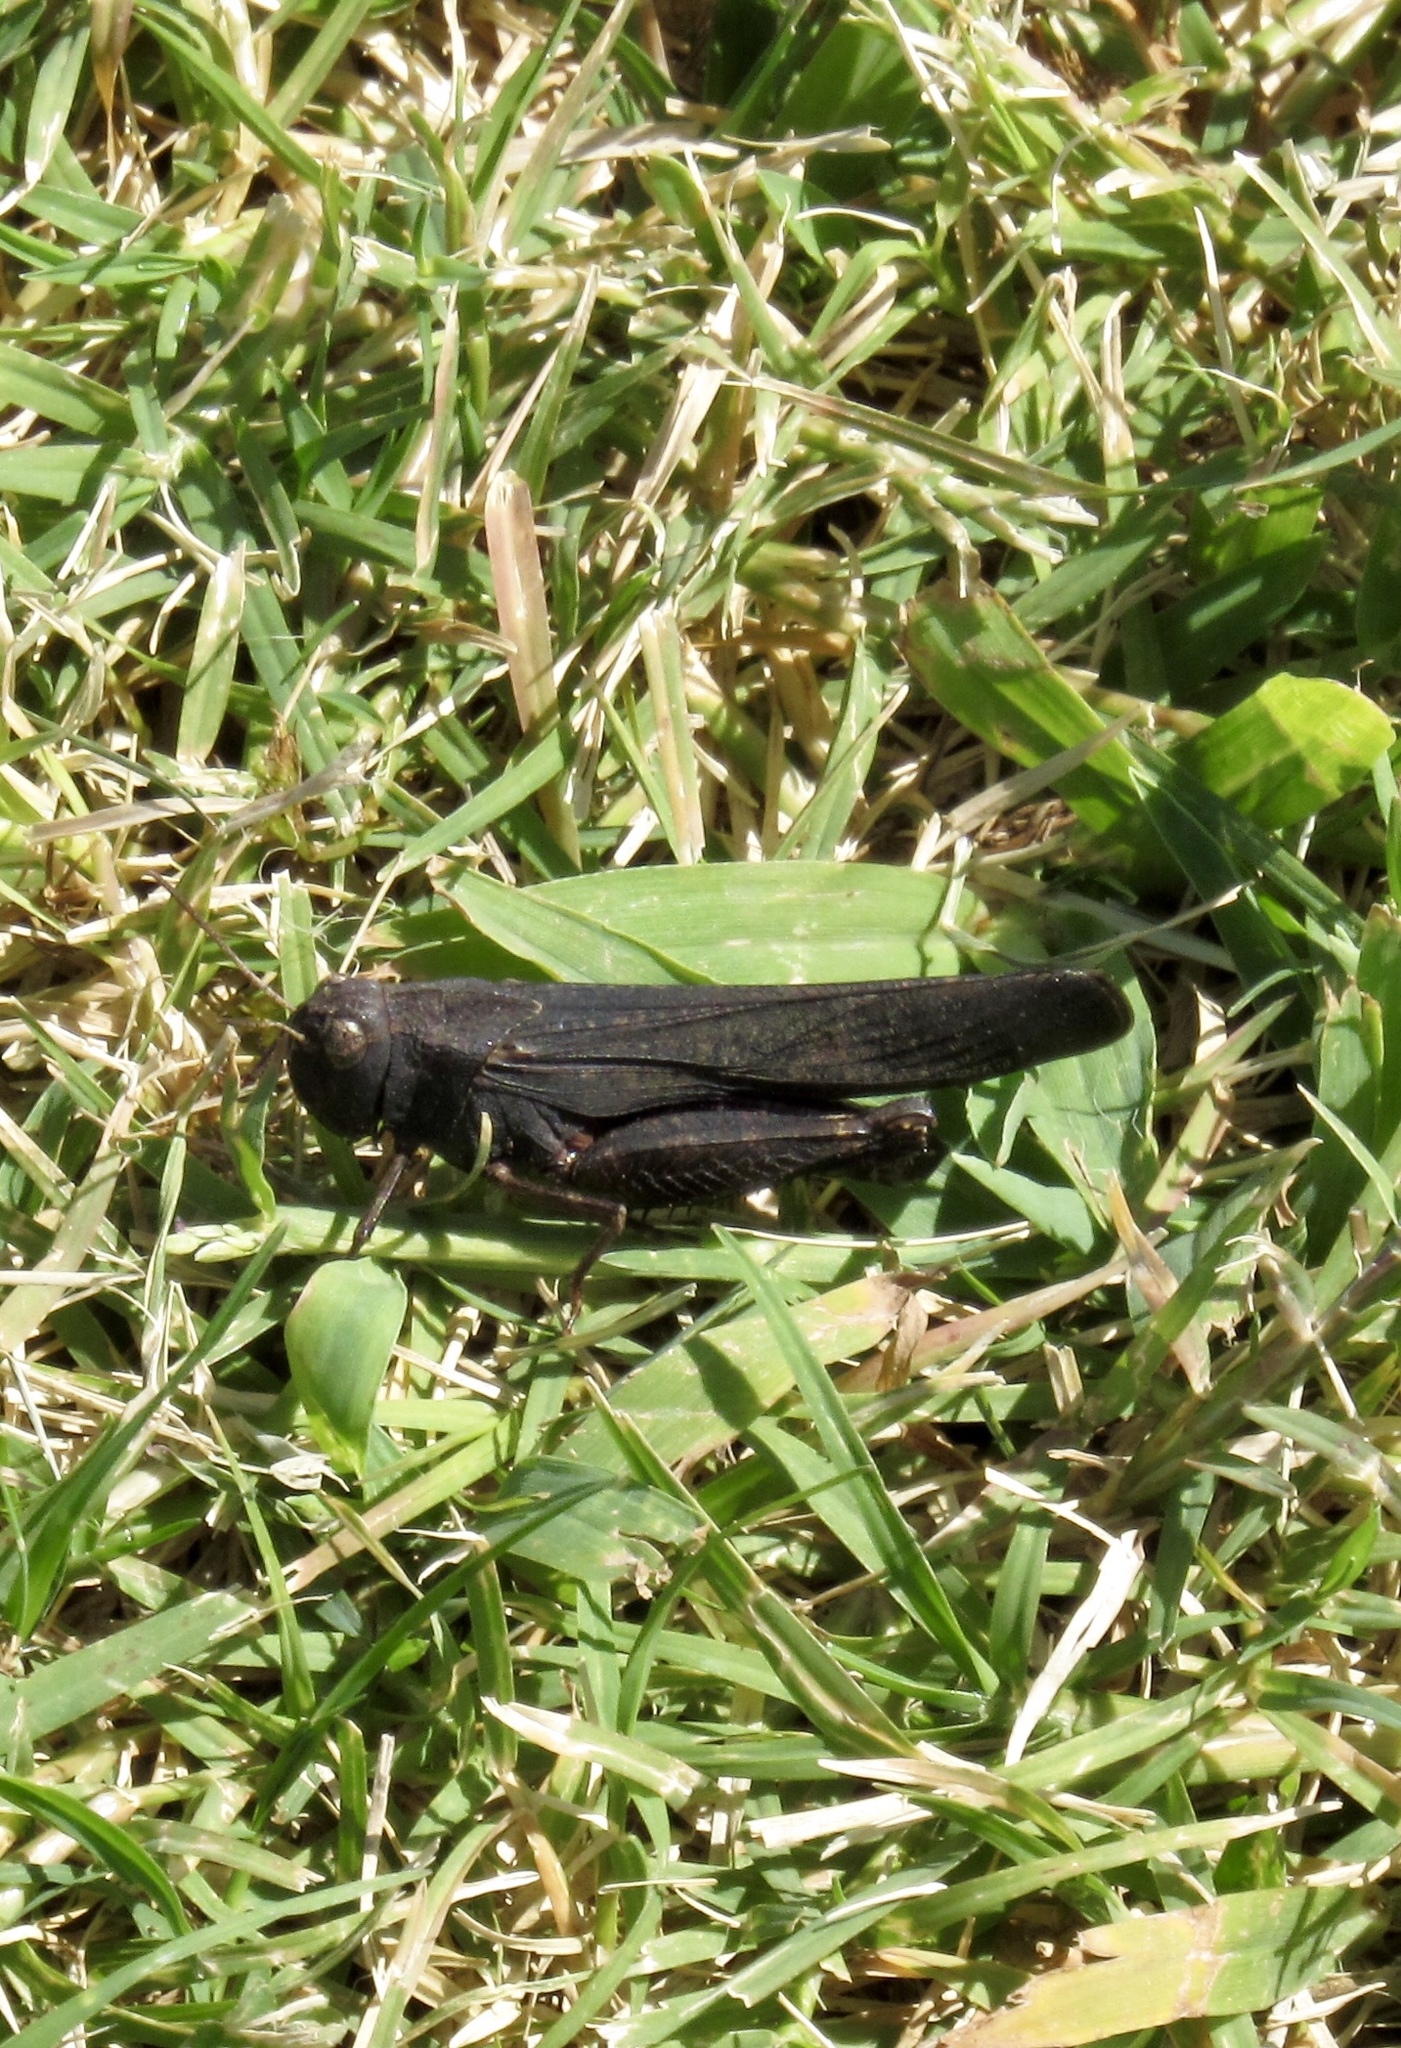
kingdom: Animalia
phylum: Arthropoda
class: Insecta
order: Orthoptera
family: Acrididae
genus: Arphia
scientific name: Arphia pseudo-nietana
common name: Red-winged grasshopper
